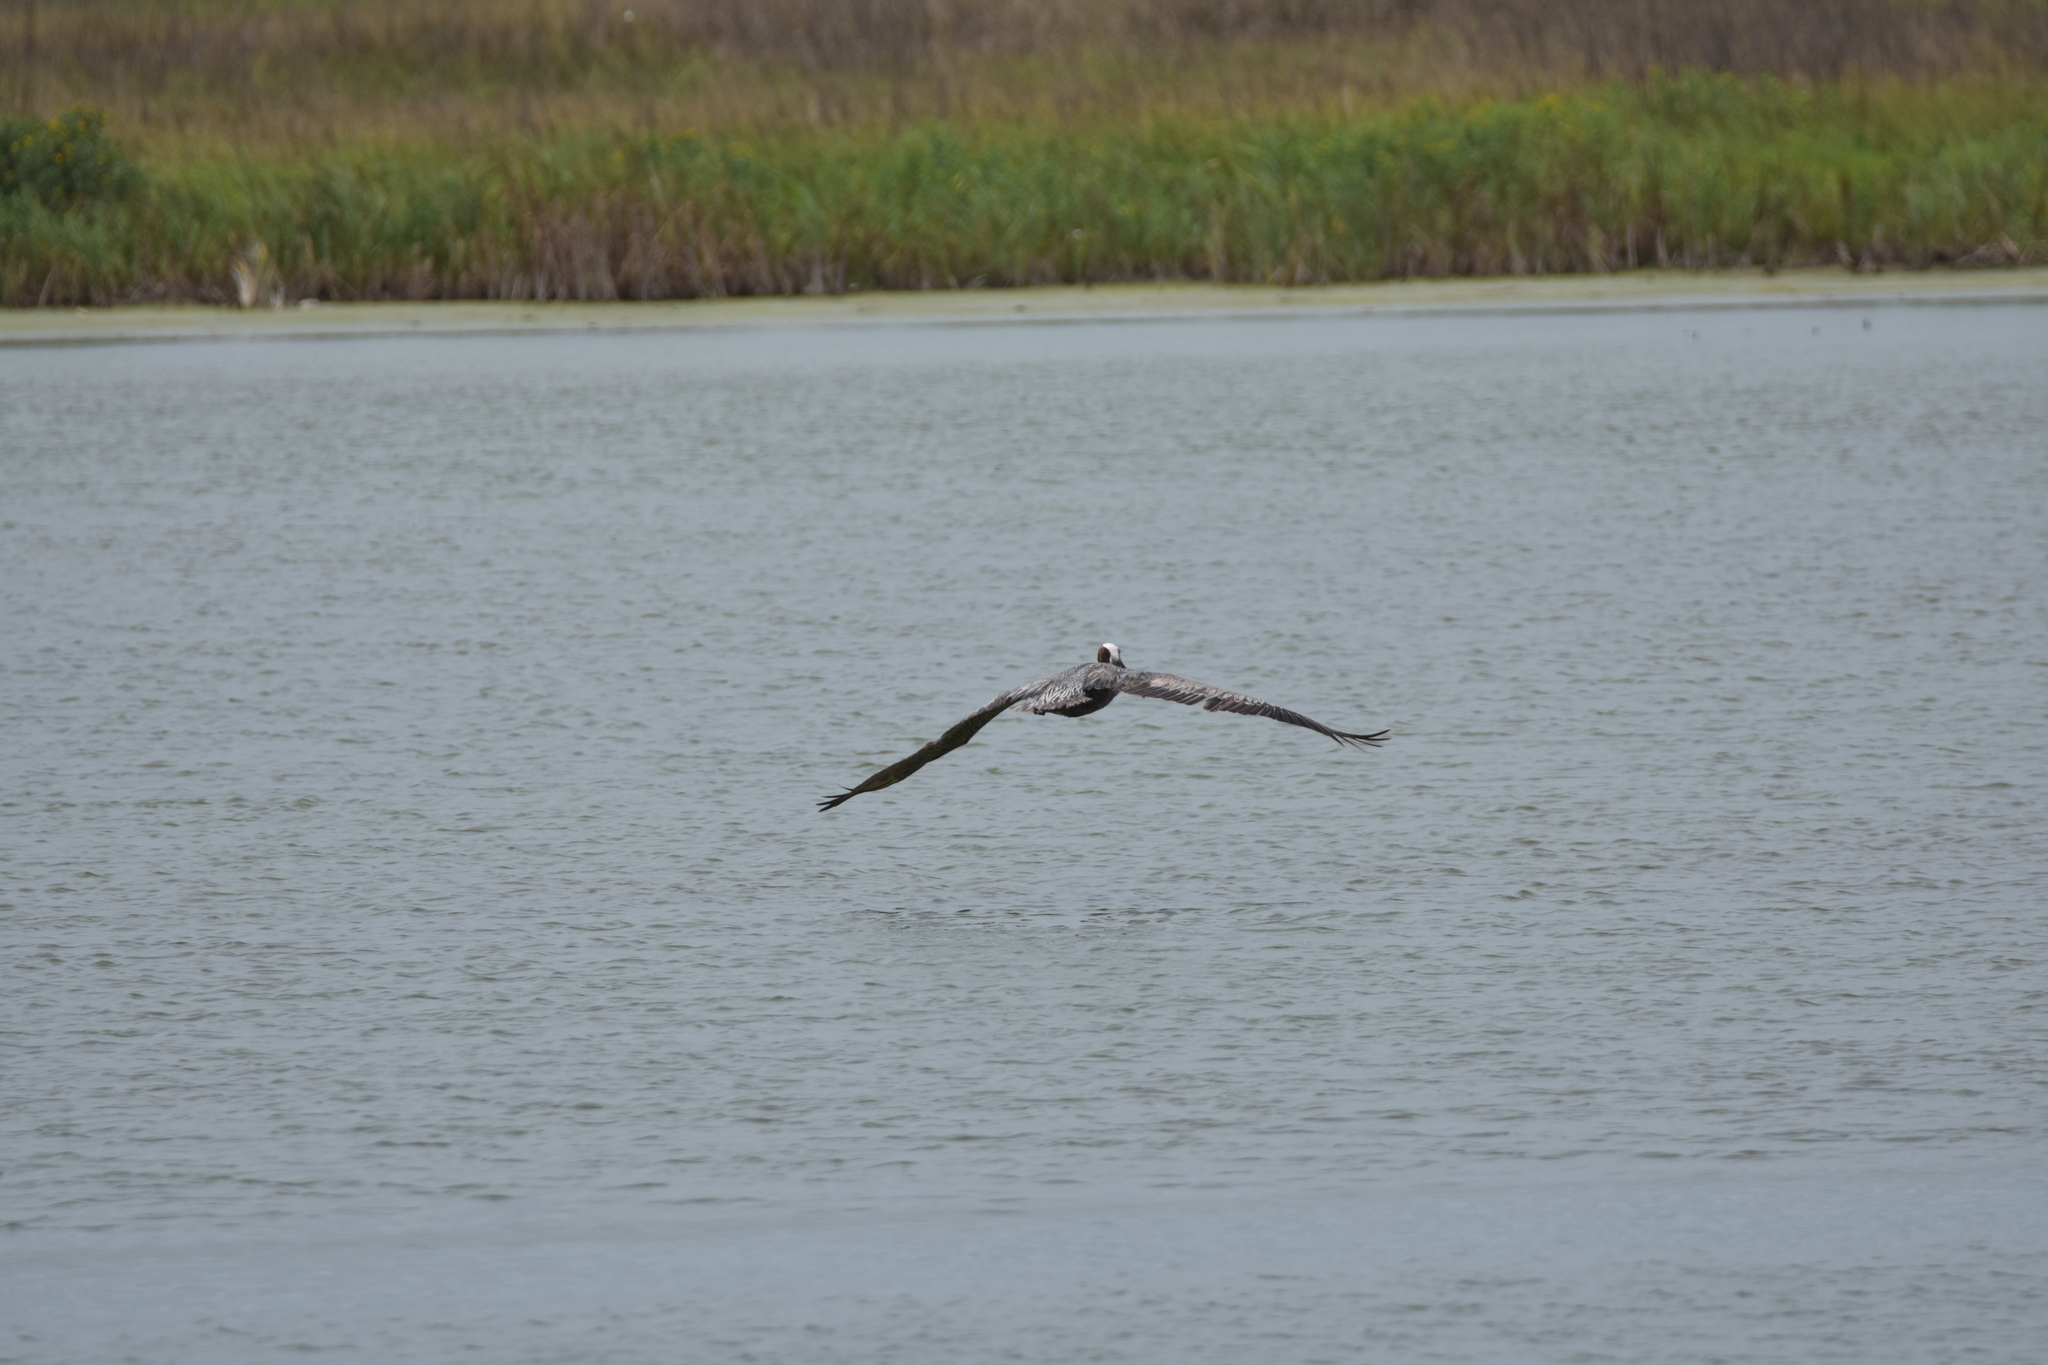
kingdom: Animalia
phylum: Chordata
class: Aves
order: Pelecaniformes
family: Pelecanidae
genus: Pelecanus
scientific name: Pelecanus occidentalis
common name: Brown pelican
